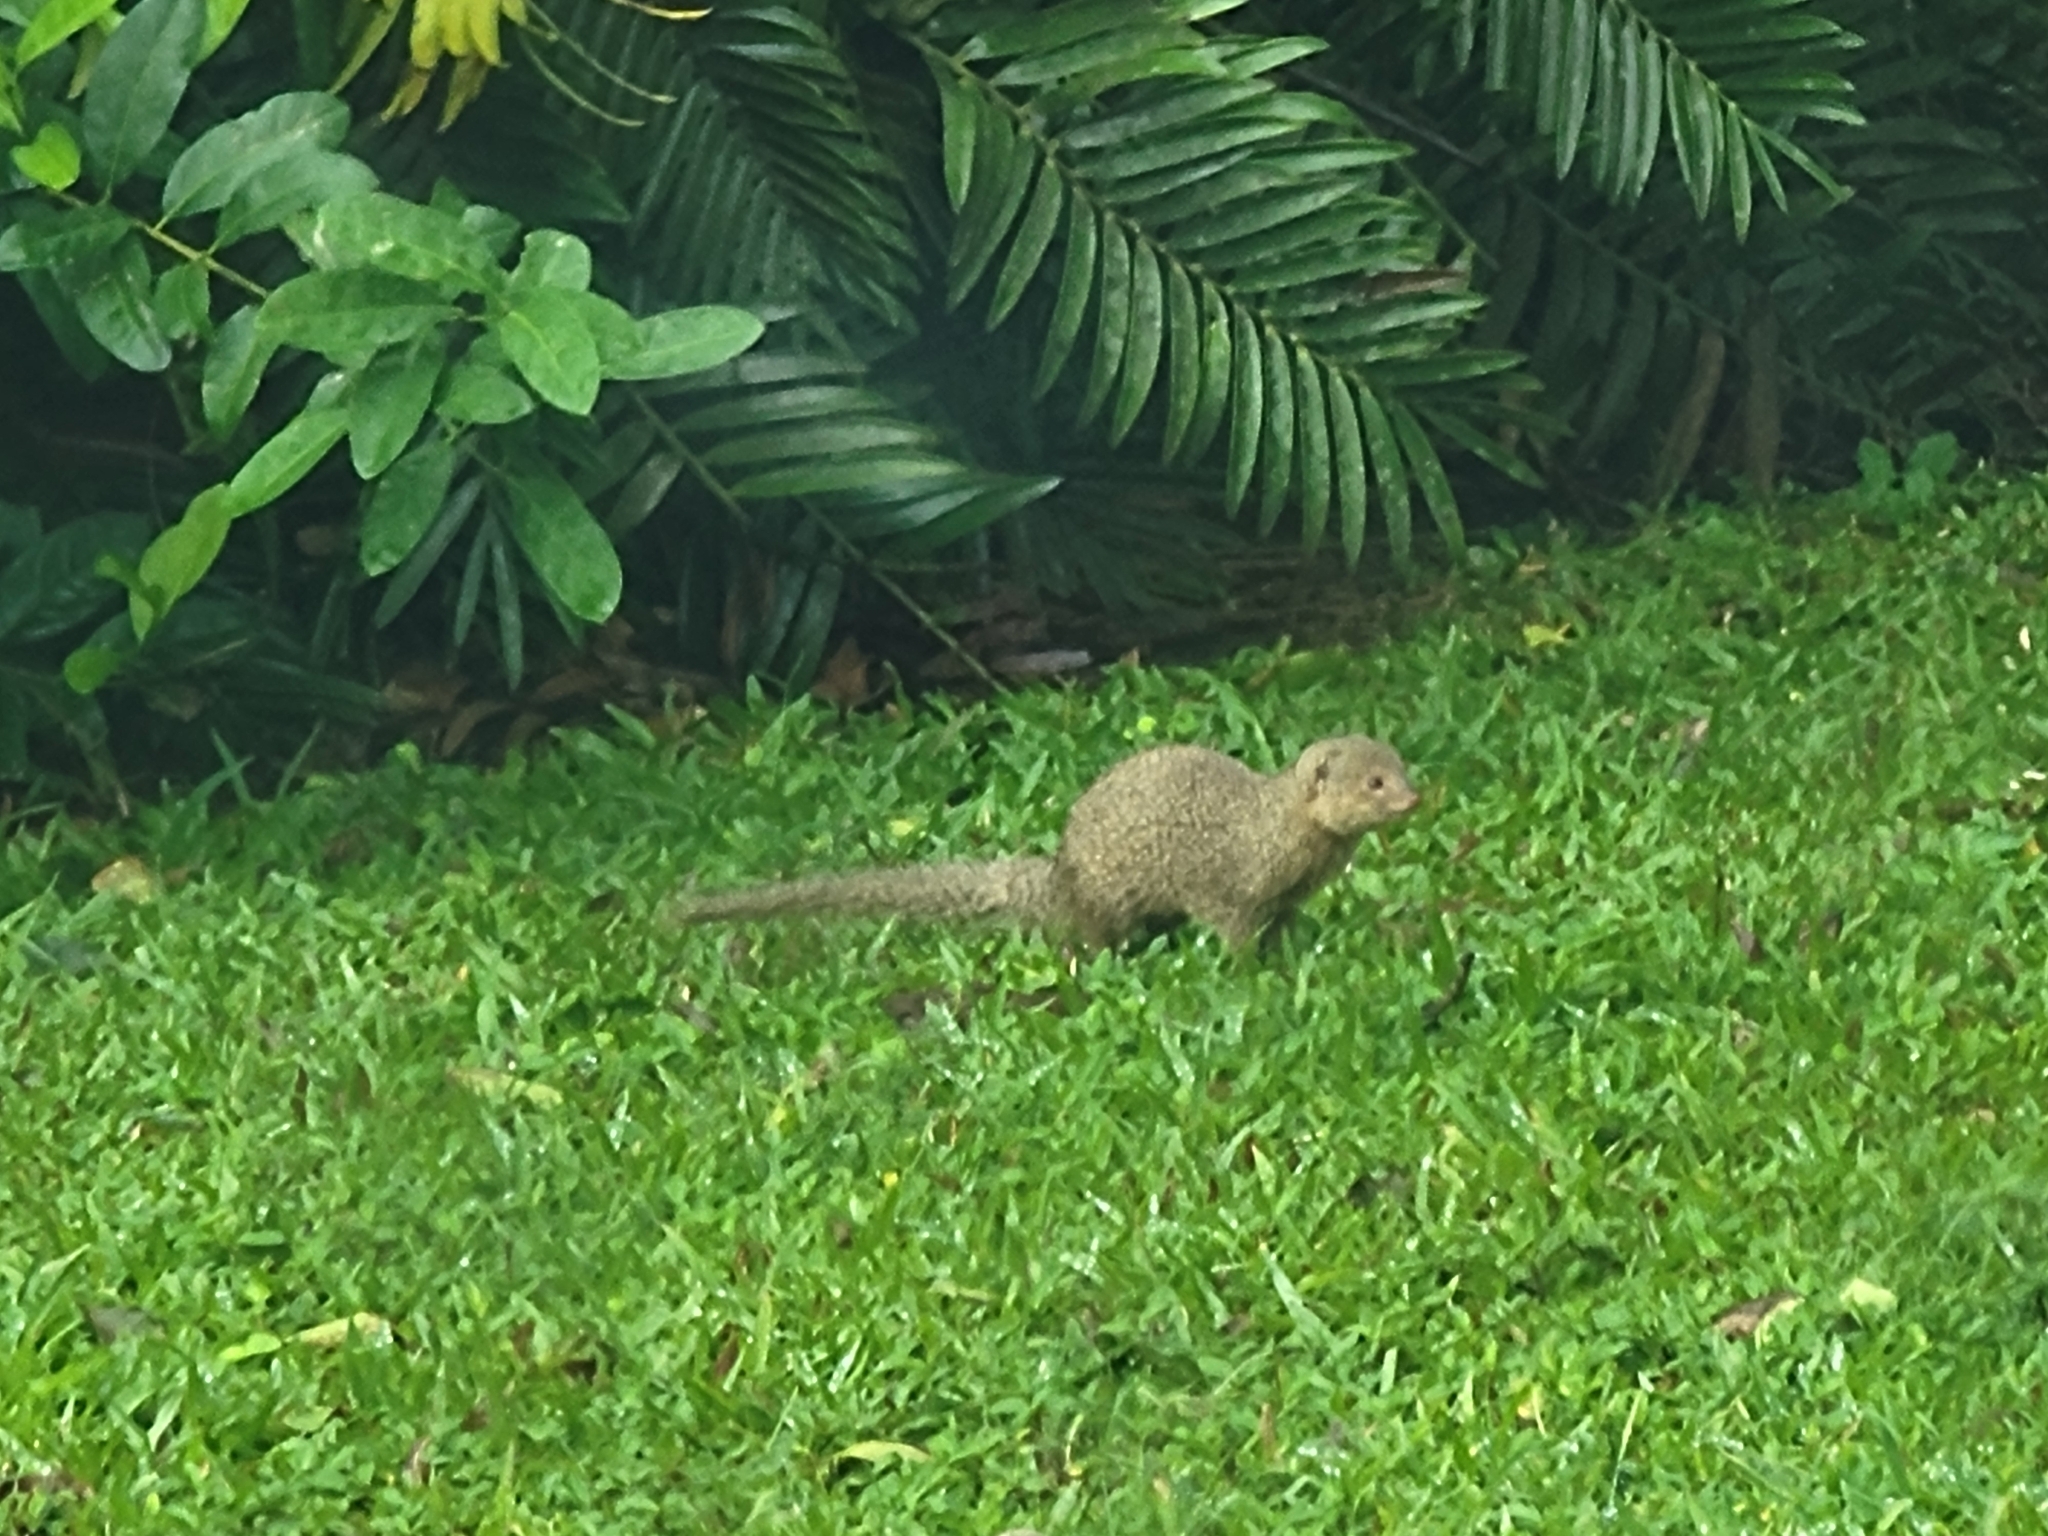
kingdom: Animalia
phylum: Chordata
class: Mammalia
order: Carnivora
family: Herpestidae
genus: Herpestes
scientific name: Herpestes javanicus
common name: Small asian mongoose
